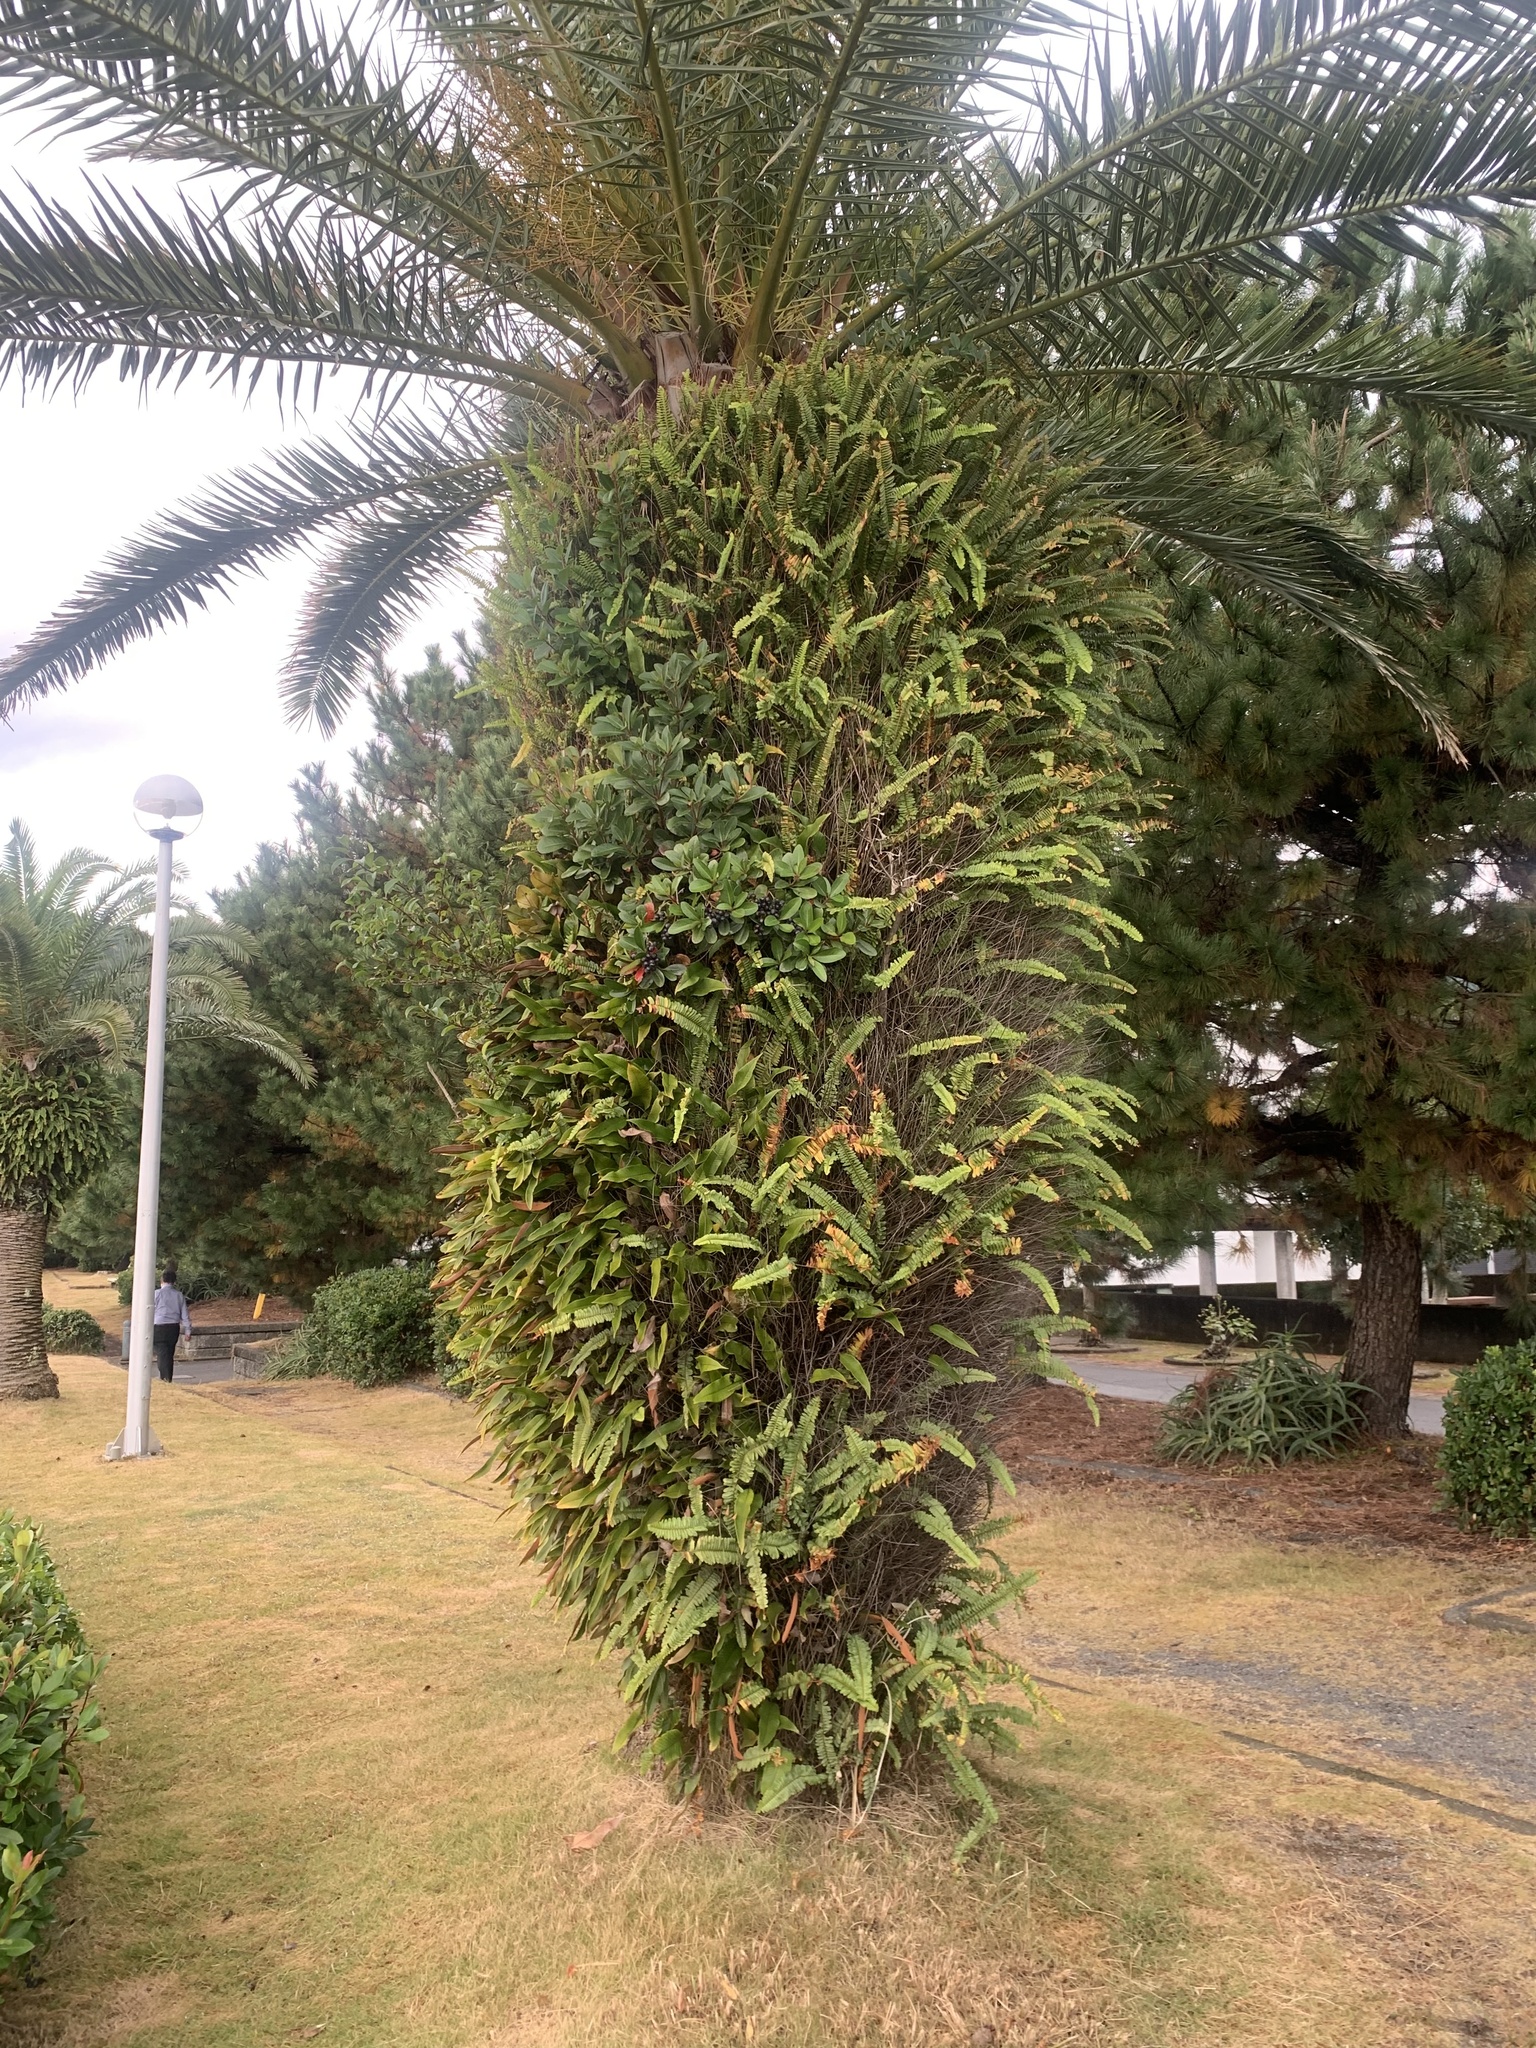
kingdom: Plantae
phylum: Tracheophyta
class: Polypodiopsida
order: Polypodiales
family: Polypodiaceae
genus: Pyrrosia
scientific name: Pyrrosia lingua
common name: Felt fern
